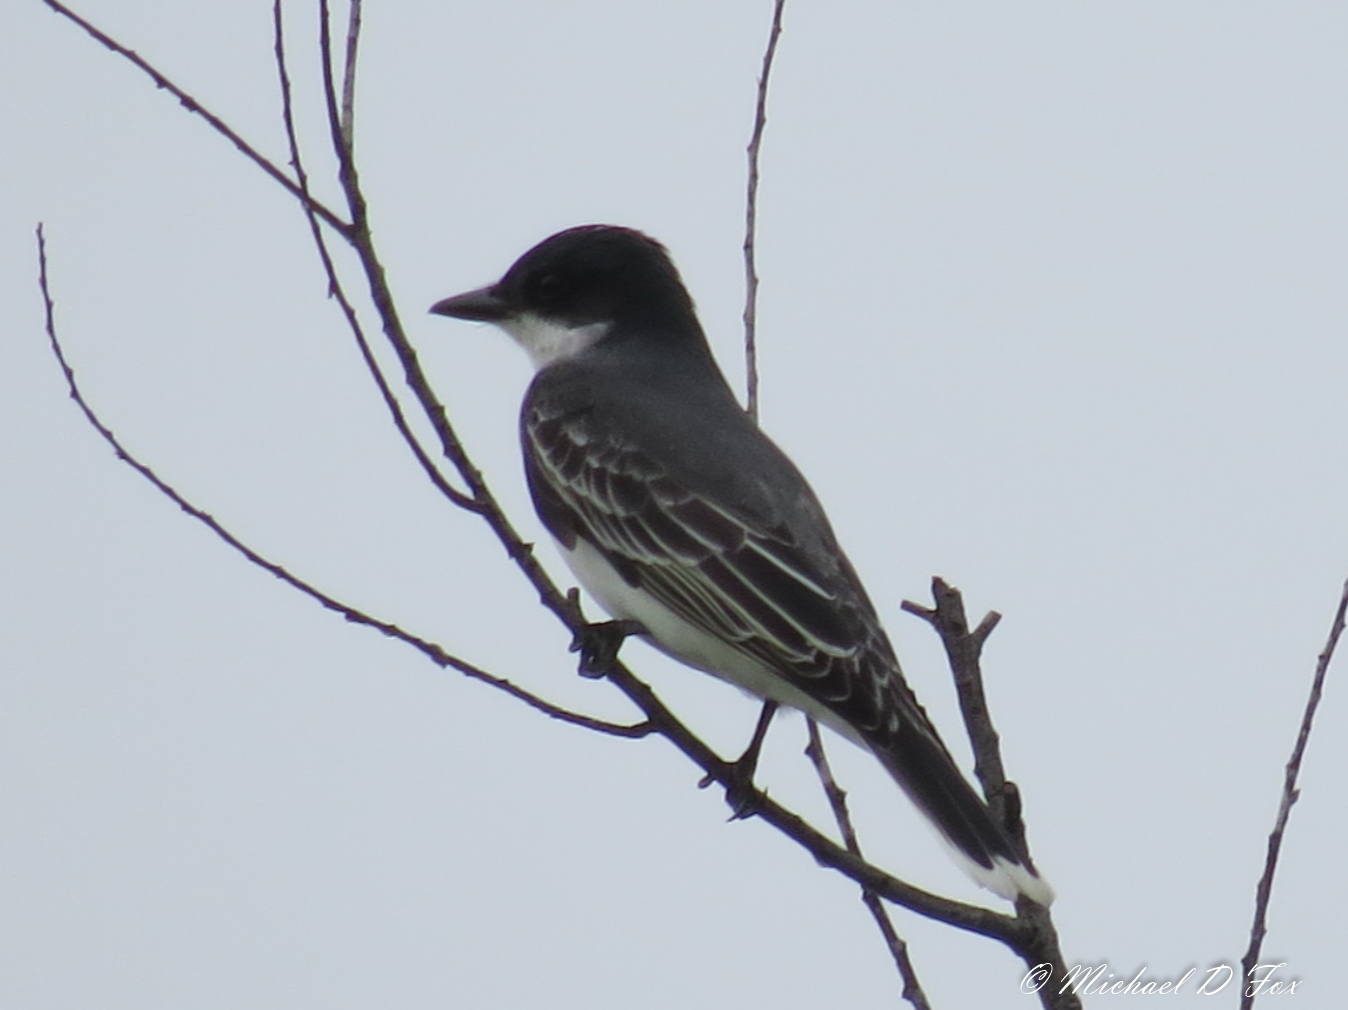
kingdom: Animalia
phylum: Chordata
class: Aves
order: Passeriformes
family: Tyrannidae
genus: Tyrannus
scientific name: Tyrannus tyrannus
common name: Eastern kingbird
